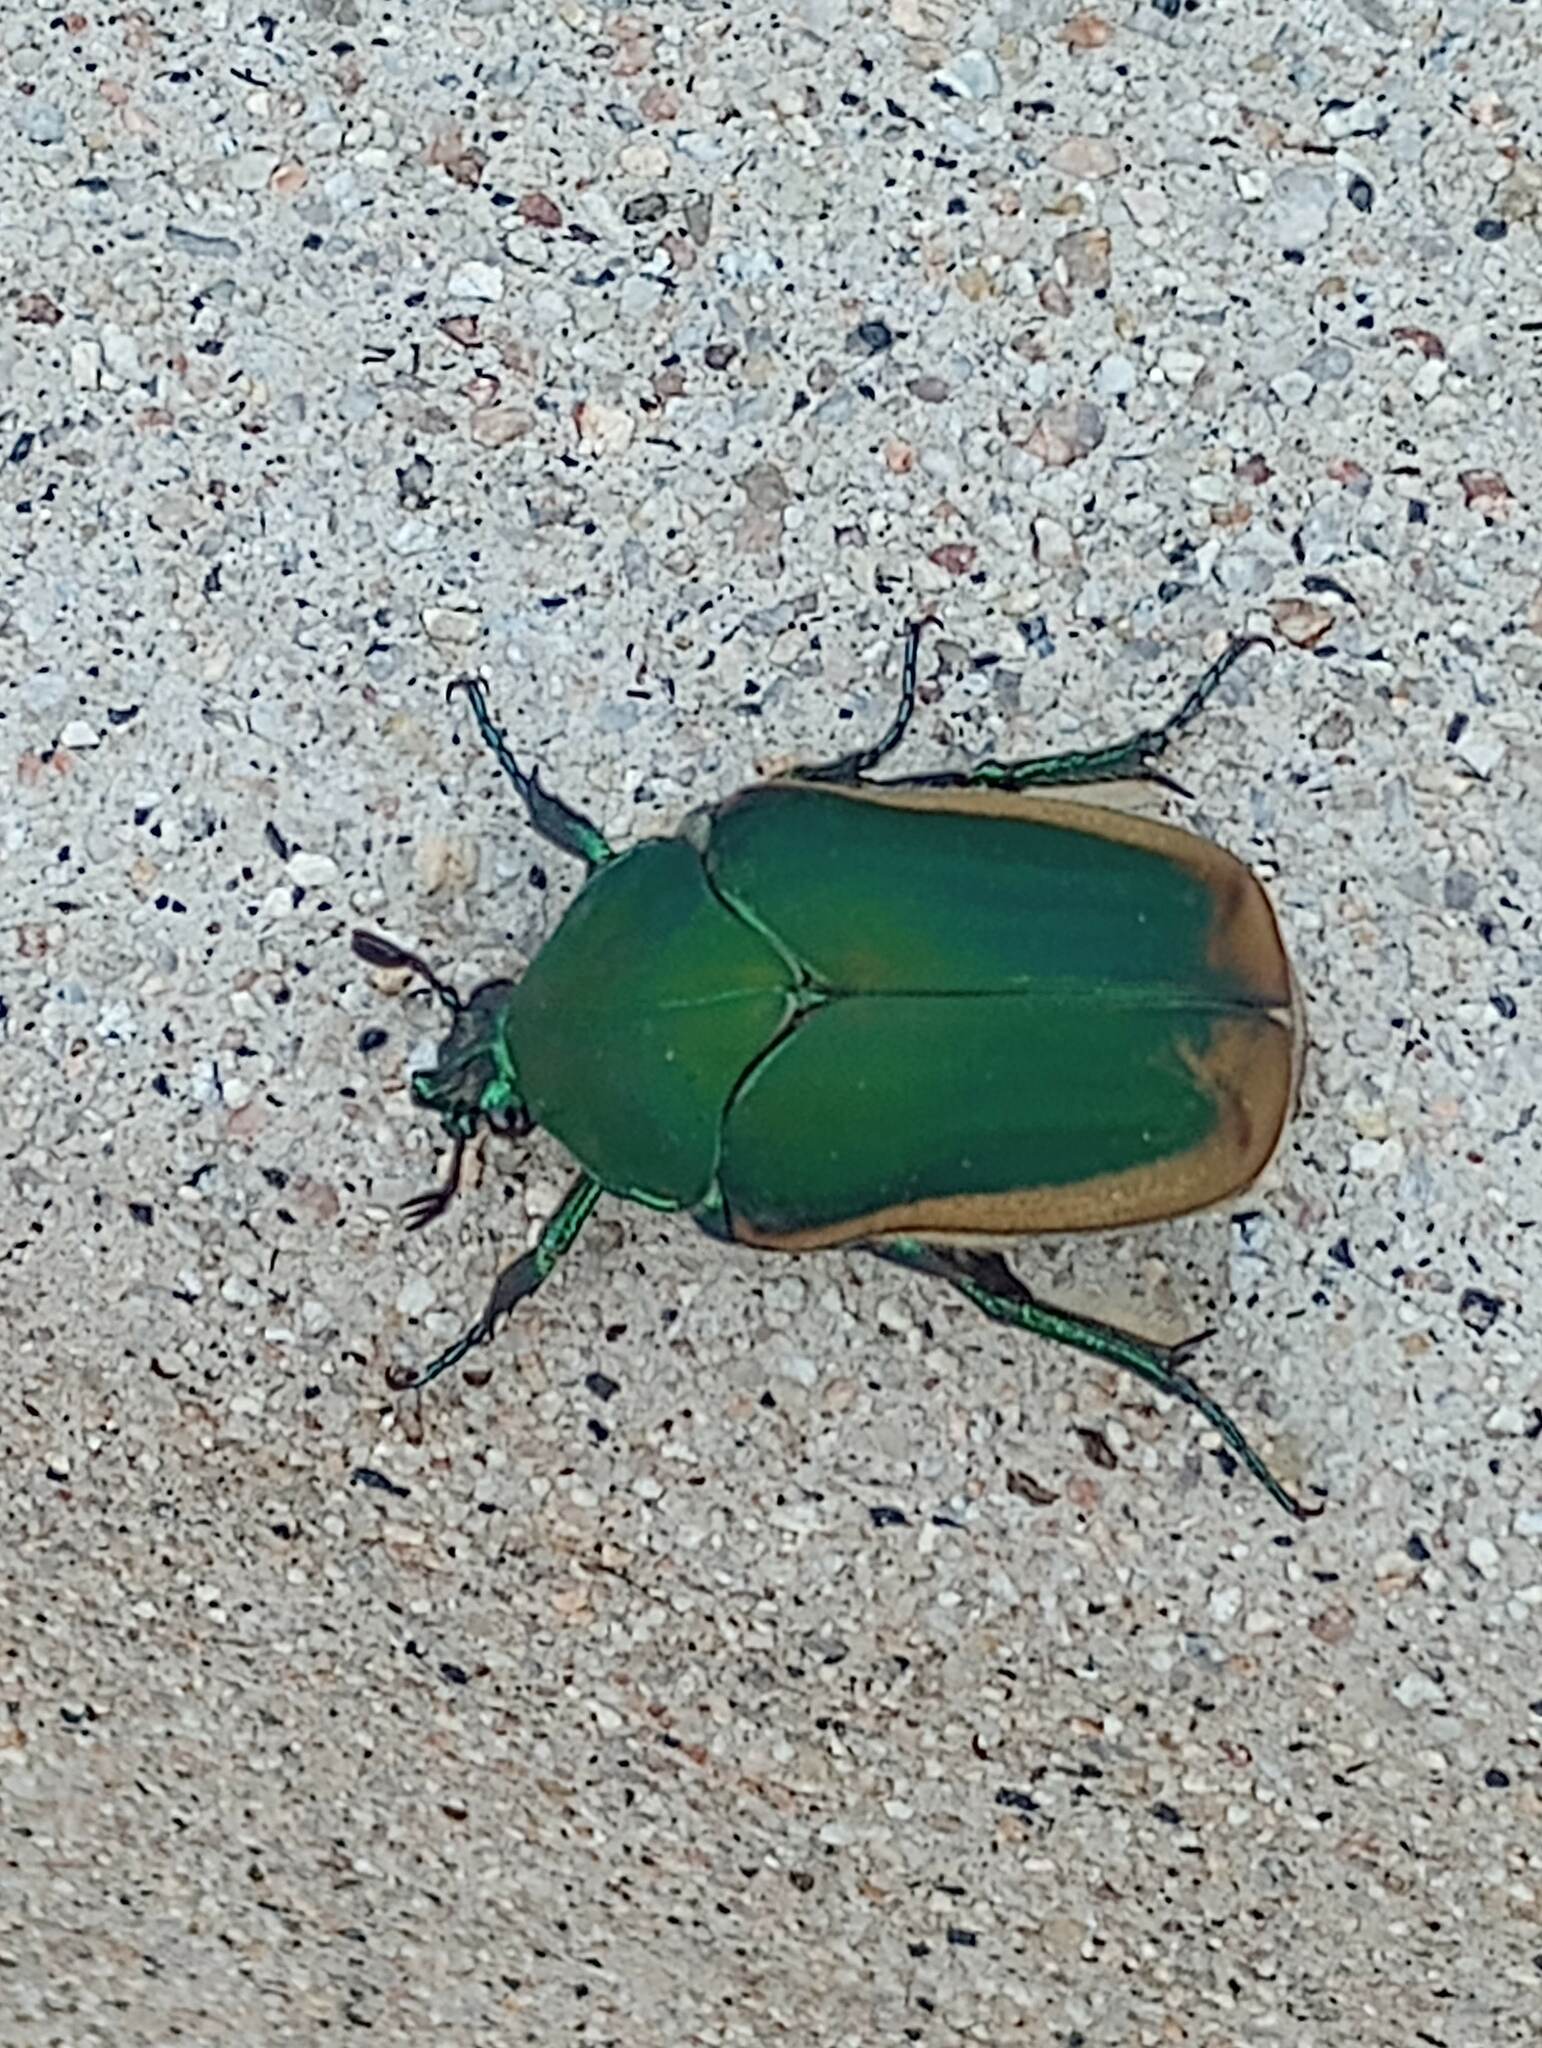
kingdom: Animalia
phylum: Arthropoda
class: Insecta
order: Coleoptera
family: Scarabaeidae
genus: Cotinis
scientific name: Cotinis mutabilis
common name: Figeater beetle
